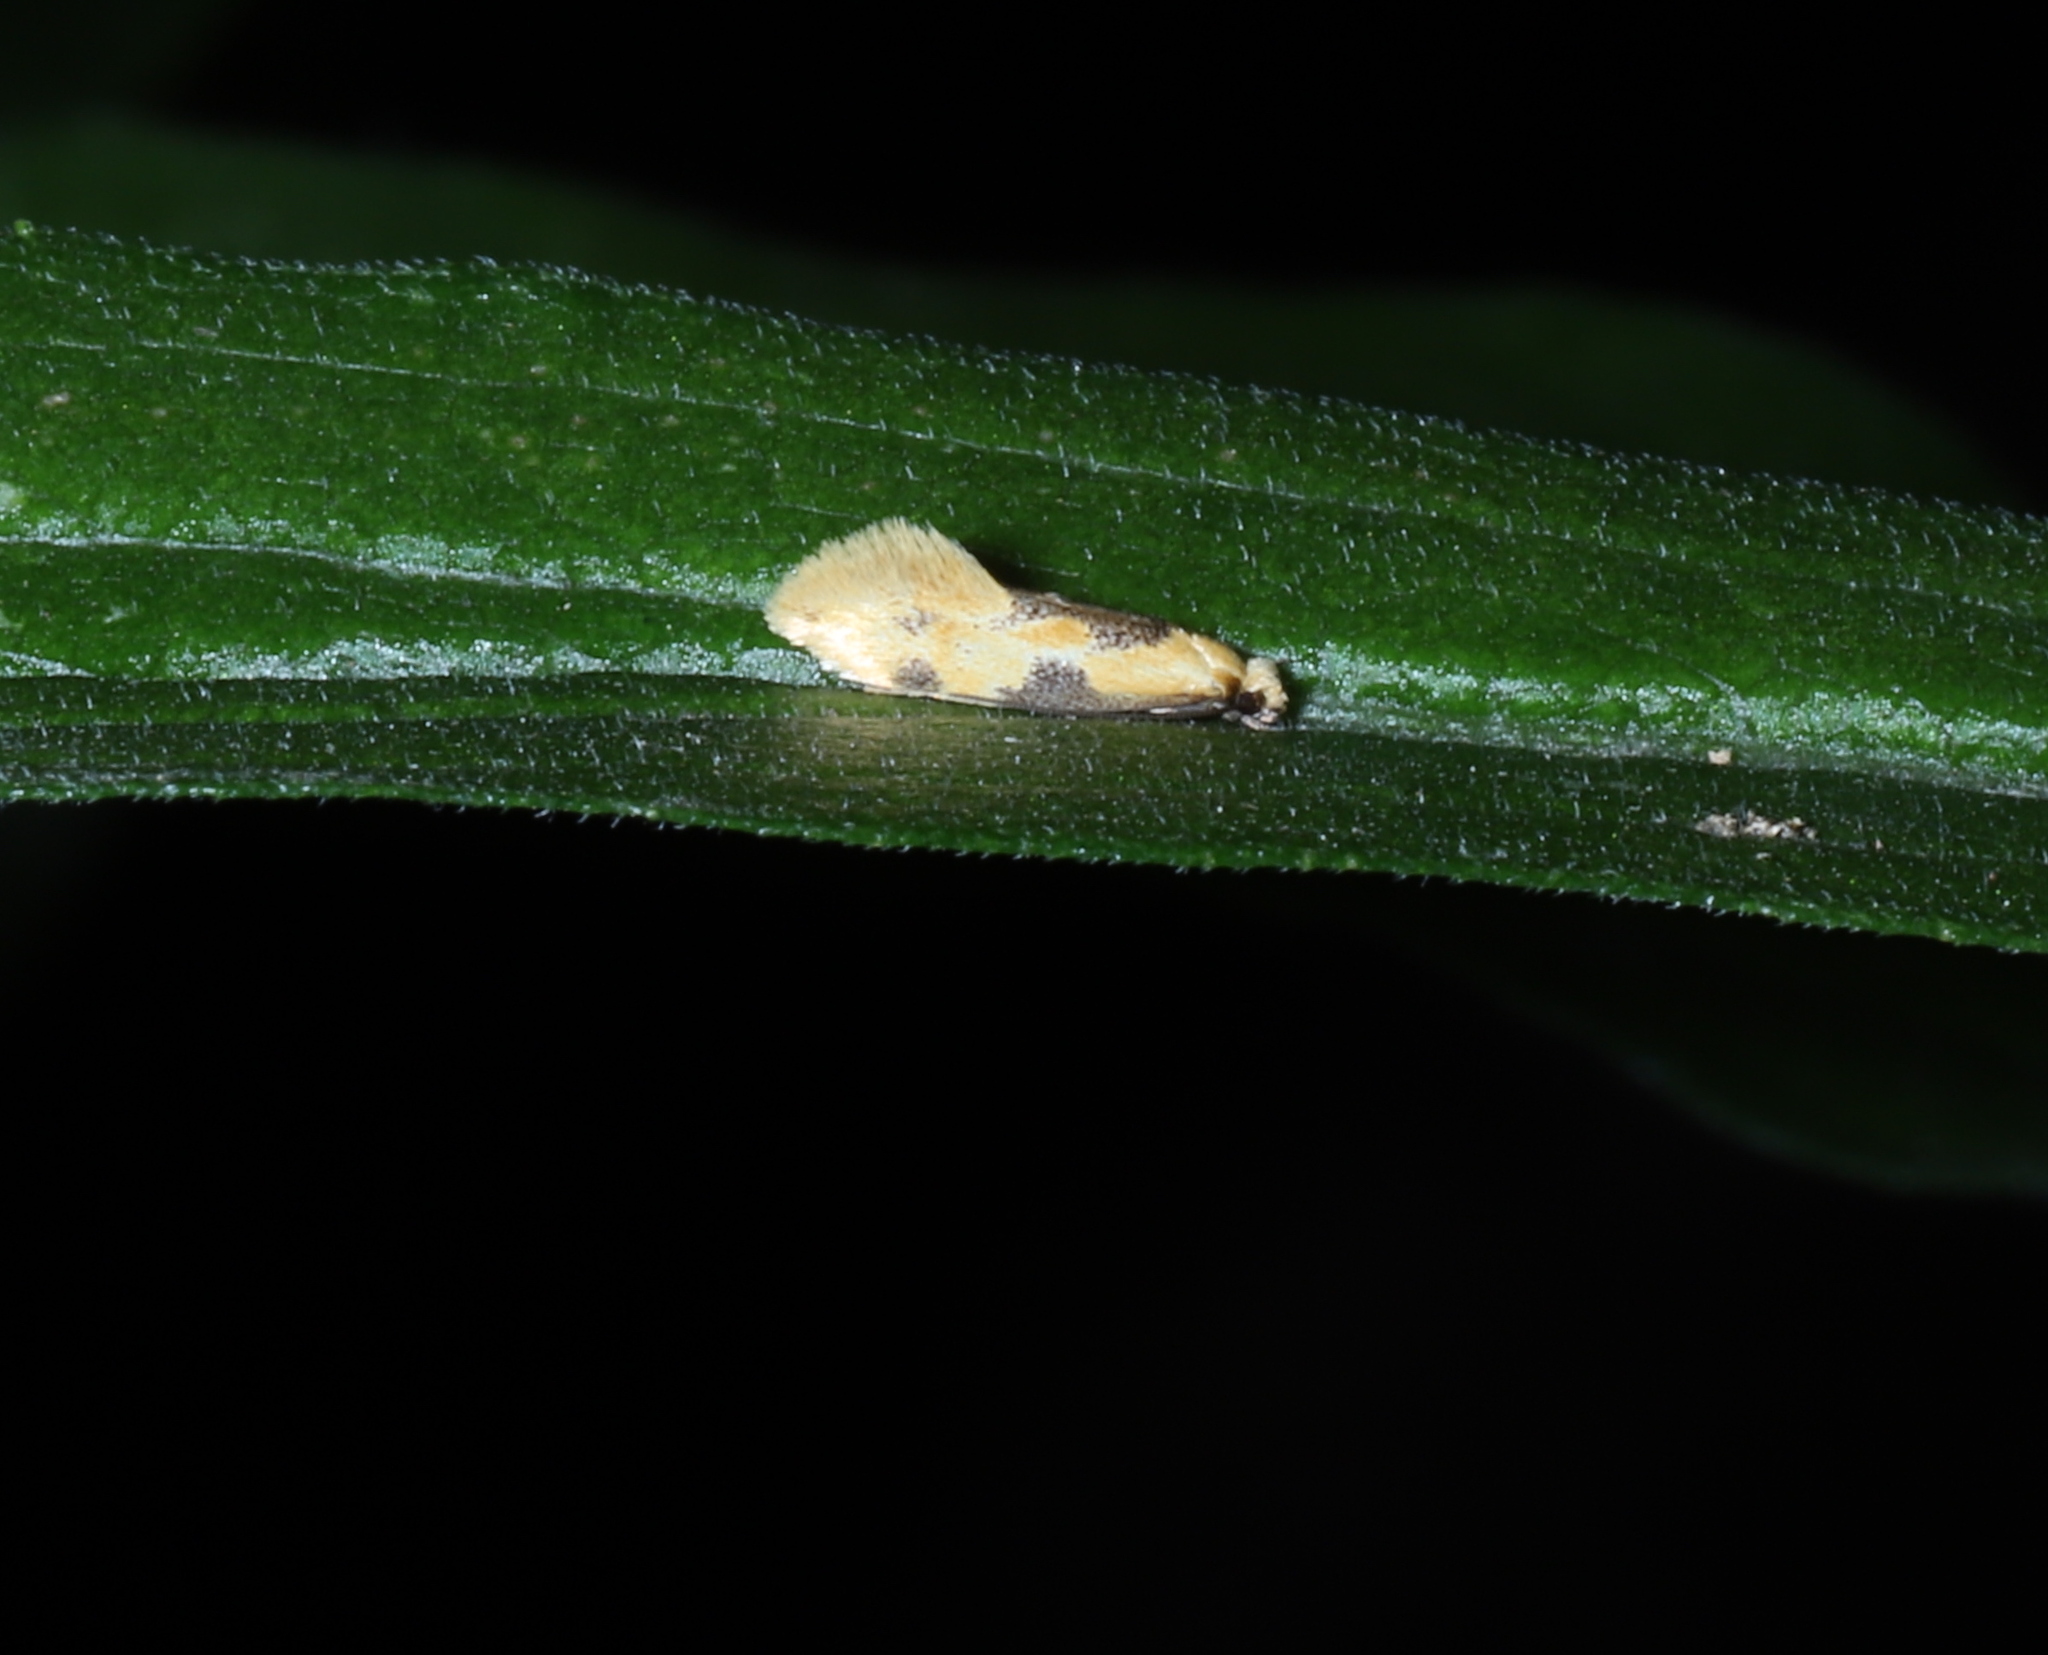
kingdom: Animalia
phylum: Arthropoda
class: Insecta
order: Lepidoptera
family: Meessiidae
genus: Hybroma
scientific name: Hybroma servulella
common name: Yellow wave moth
